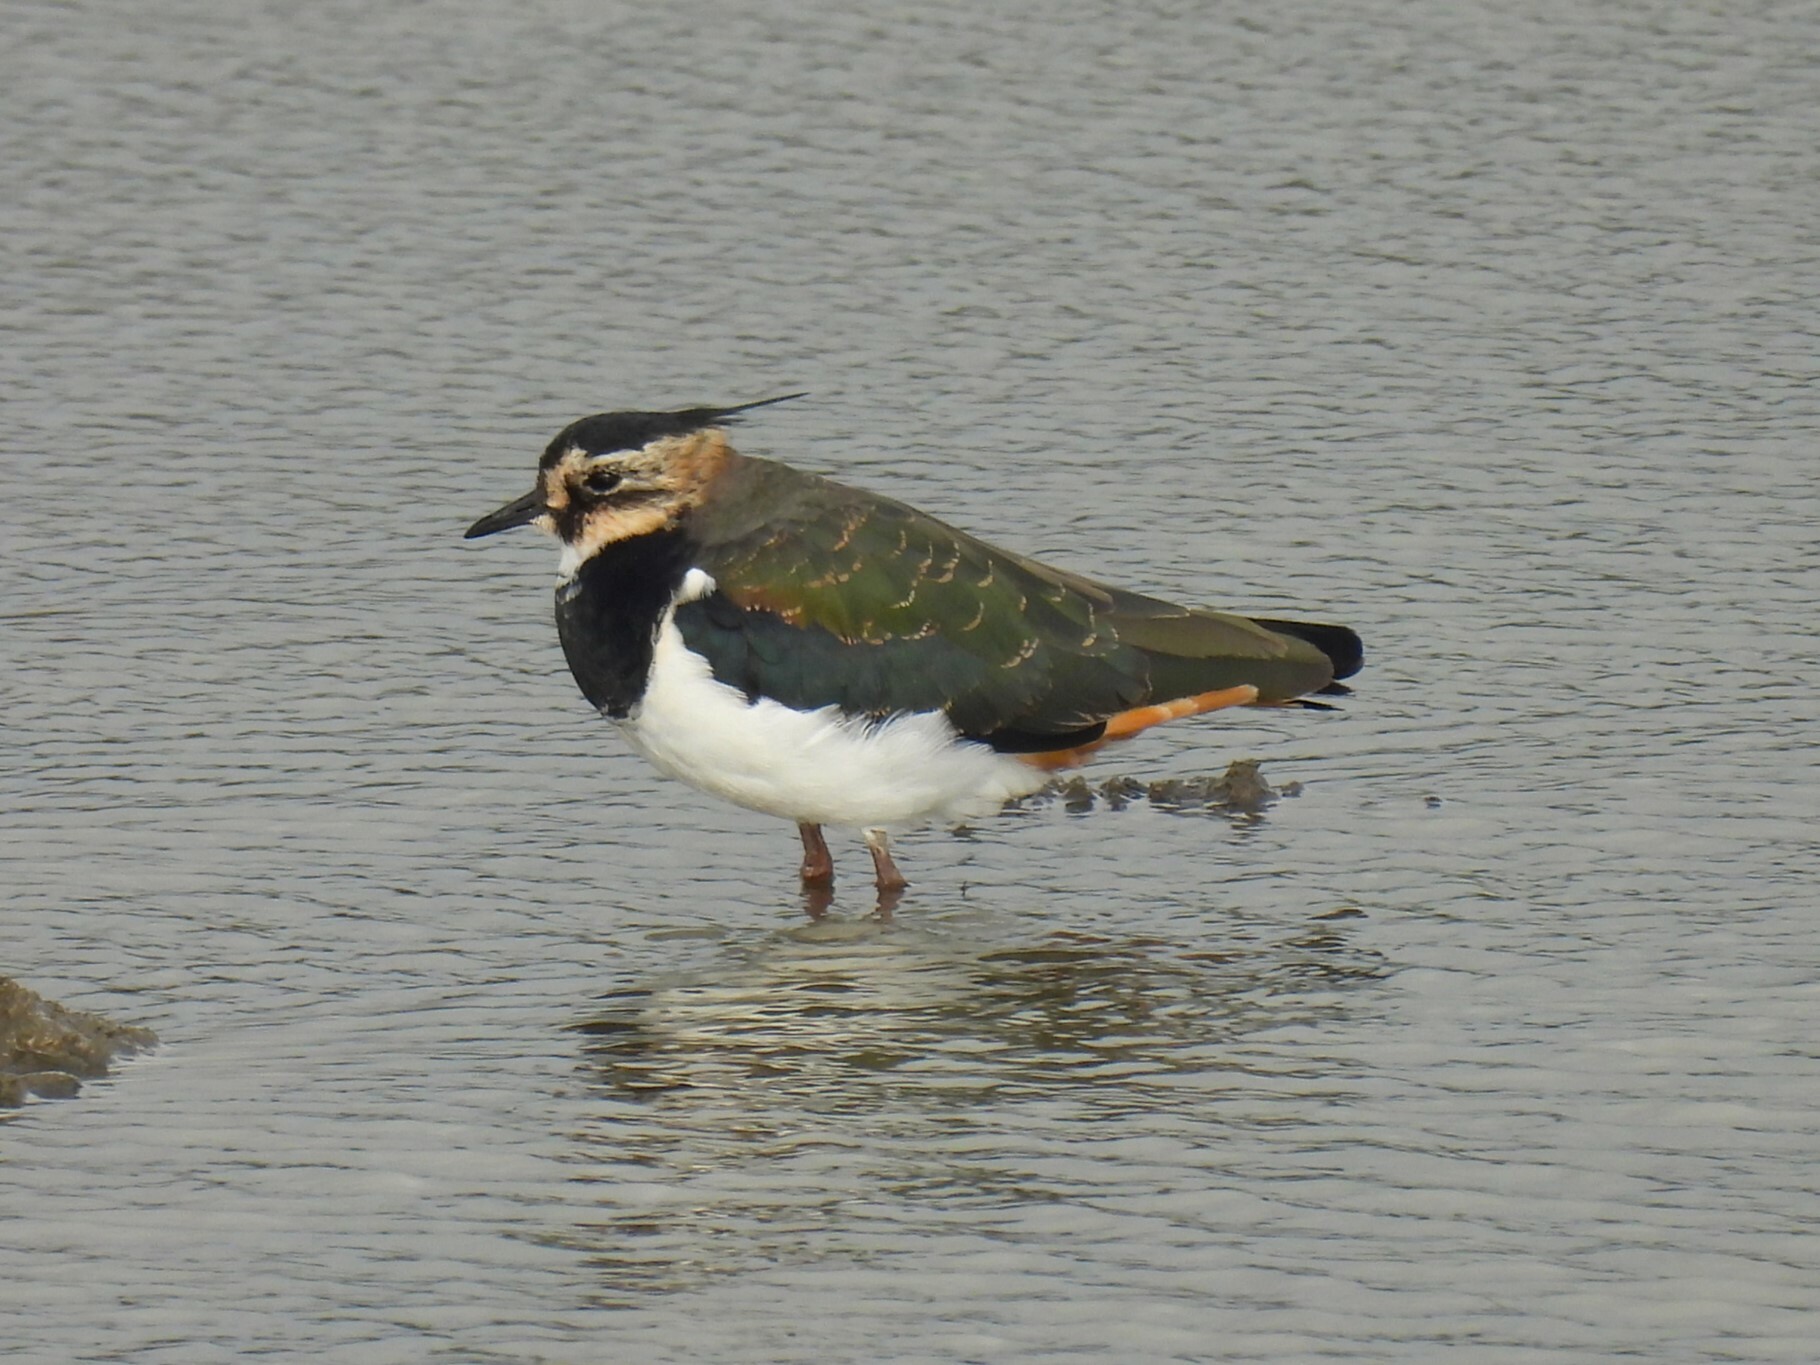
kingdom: Animalia
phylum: Chordata
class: Aves
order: Charadriiformes
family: Charadriidae
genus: Vanellus
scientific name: Vanellus vanellus
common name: Northern lapwing
